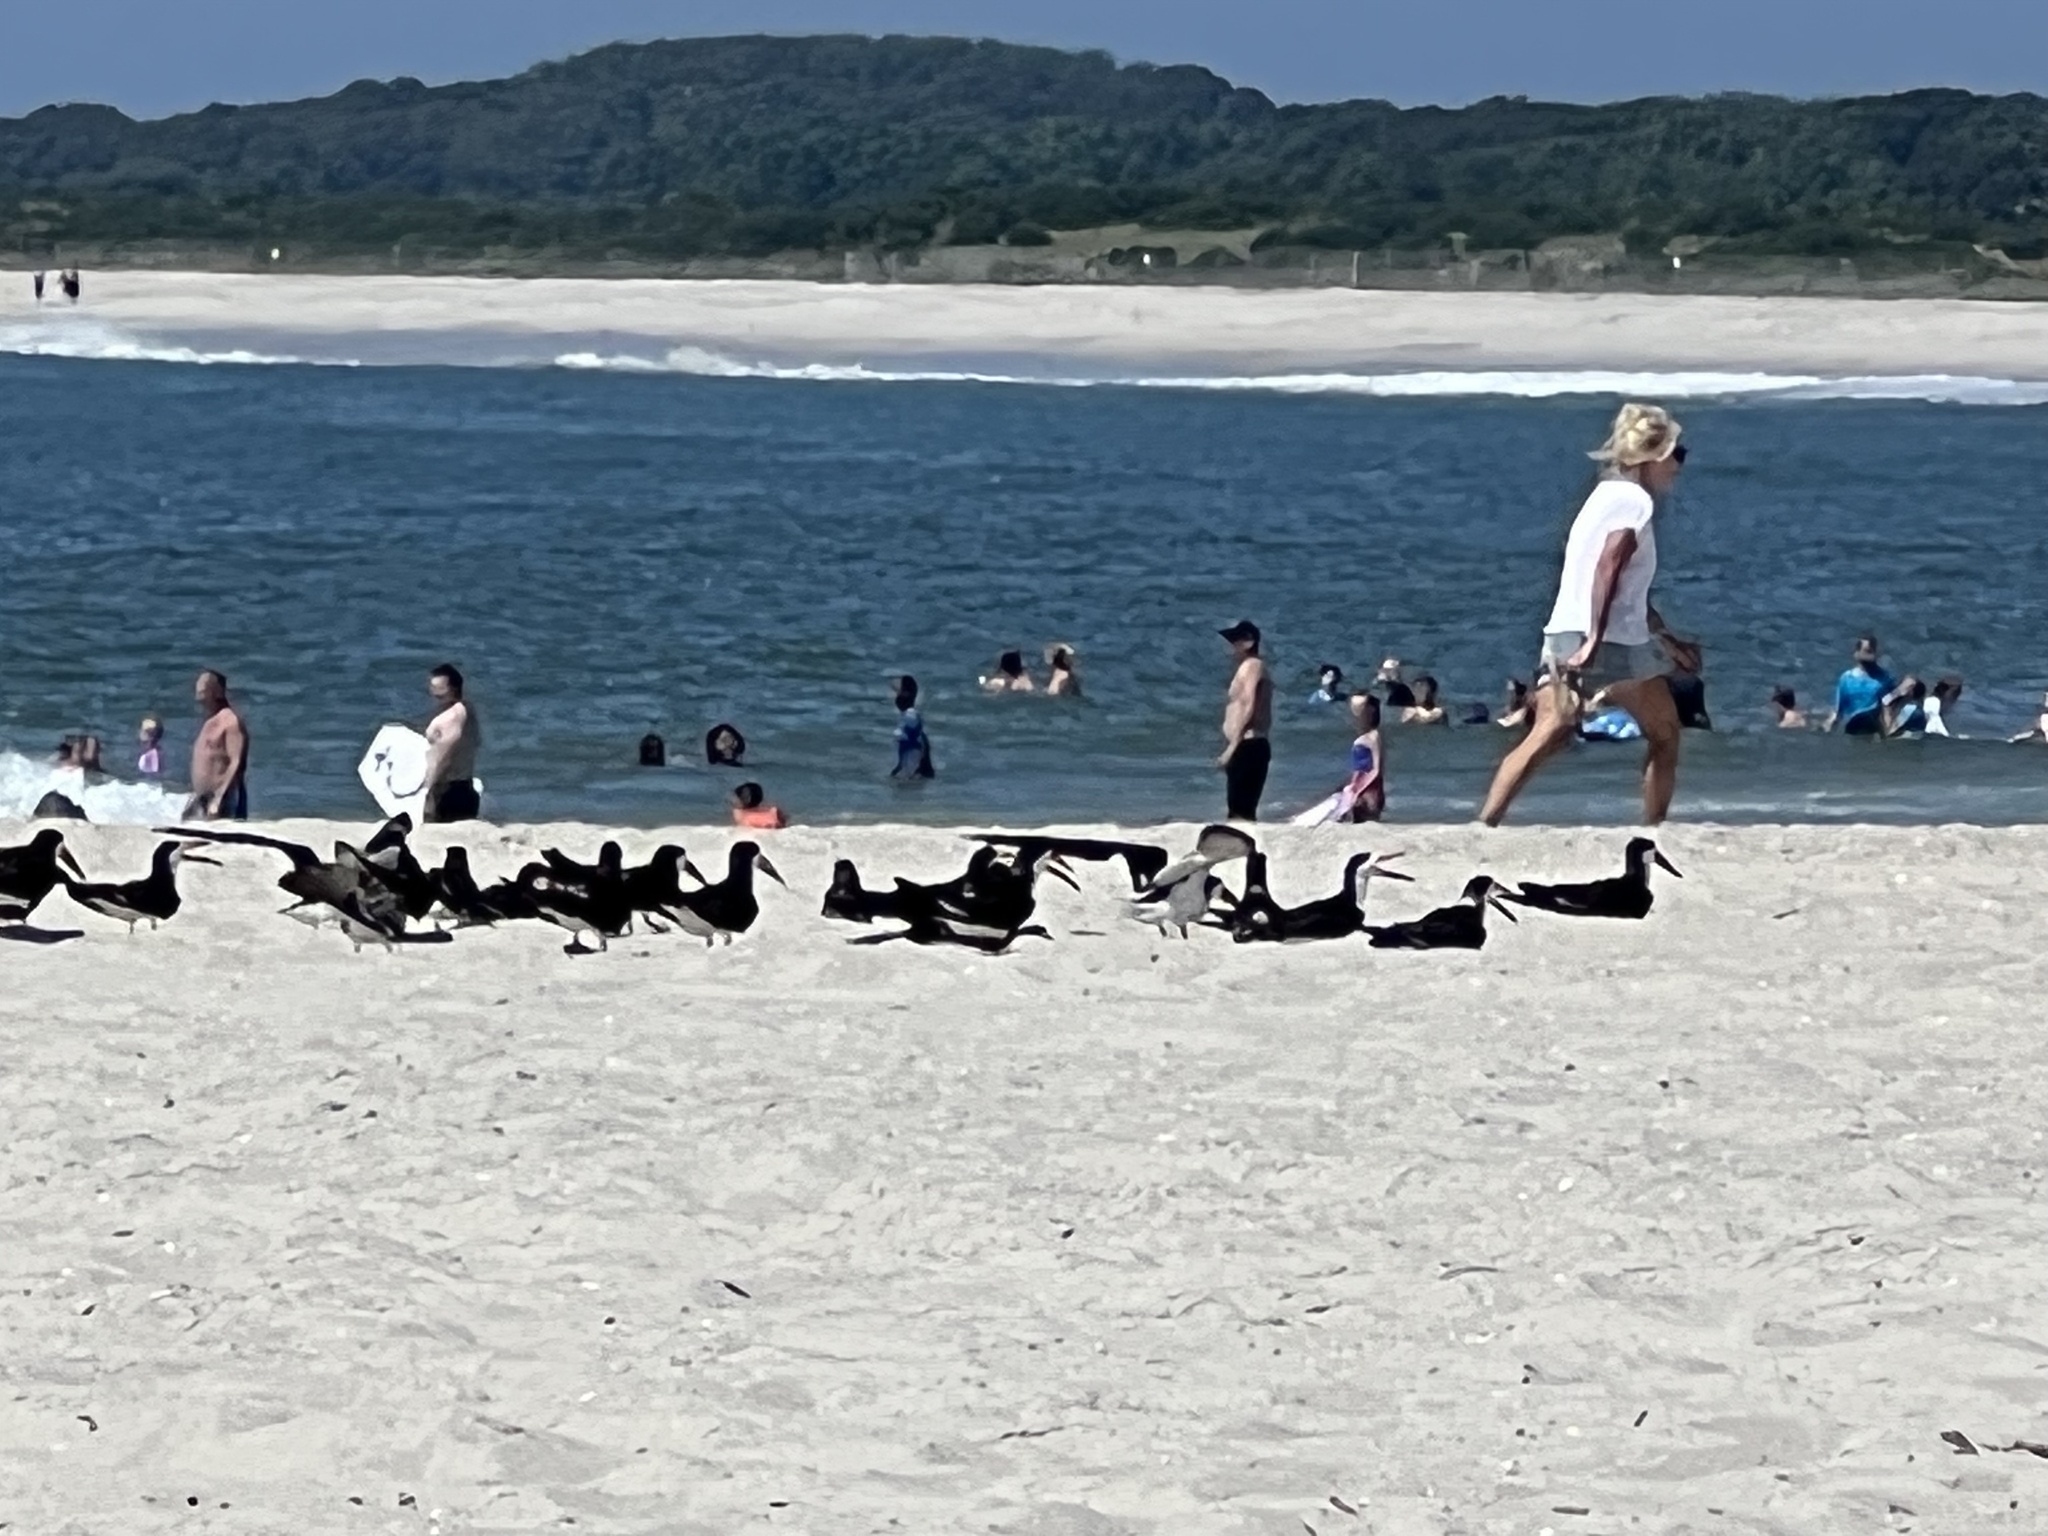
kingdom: Animalia
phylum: Chordata
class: Aves
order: Charadriiformes
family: Laridae
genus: Rynchops
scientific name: Rynchops niger
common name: Black skimmer
